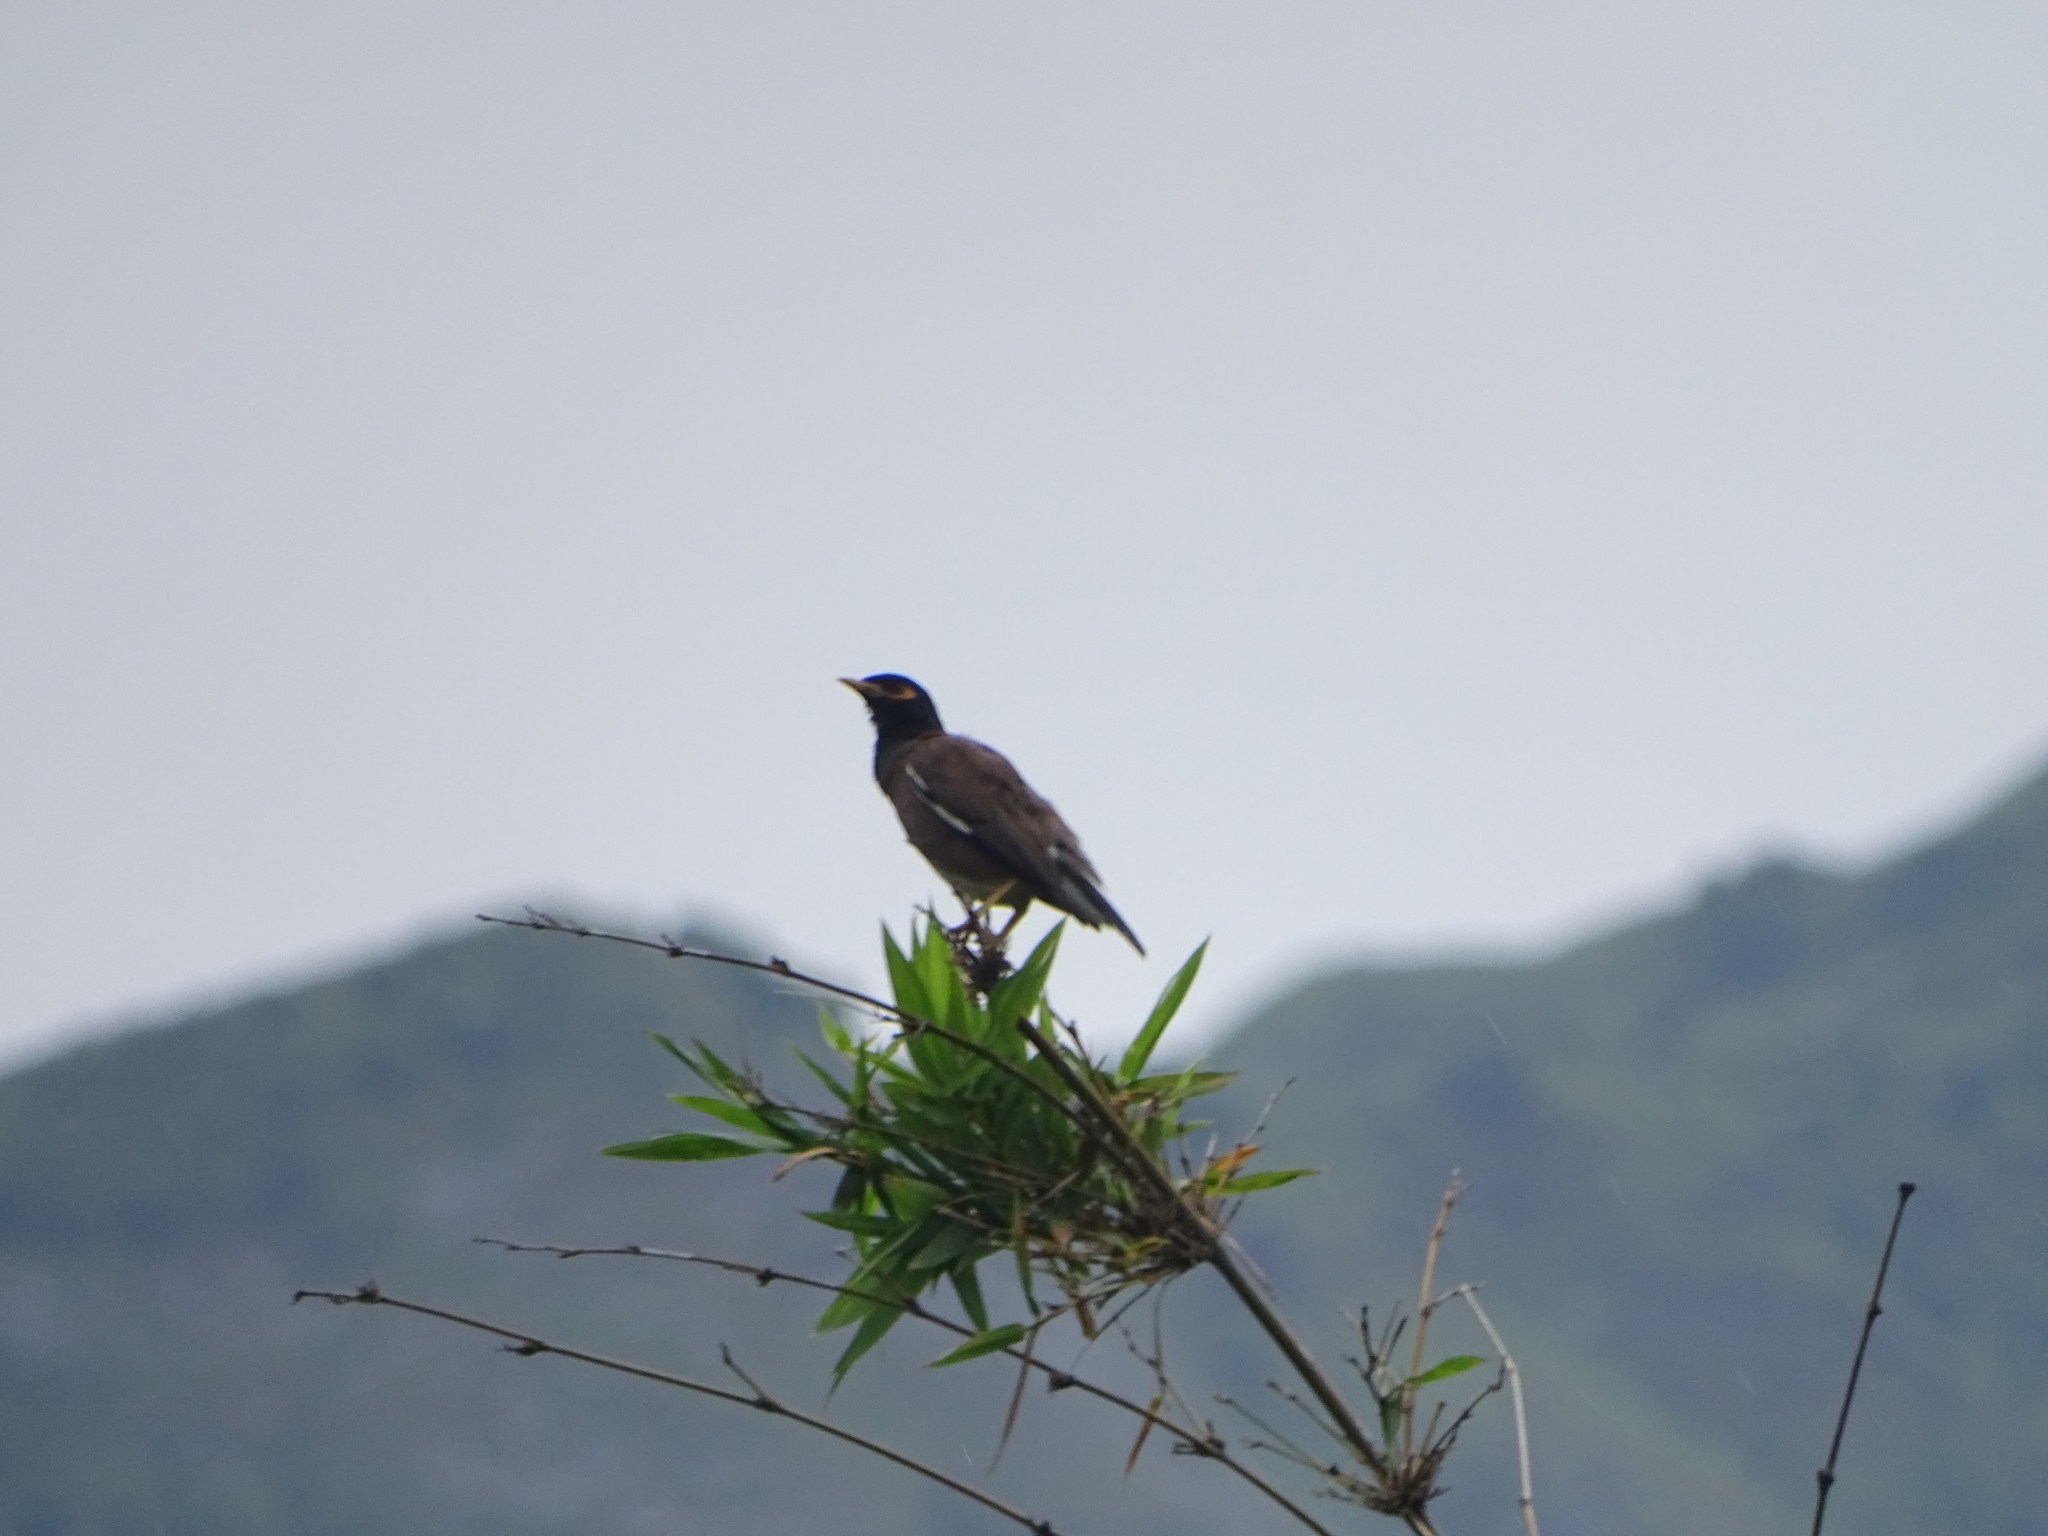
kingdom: Animalia
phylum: Chordata
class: Aves
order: Passeriformes
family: Sturnidae
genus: Acridotheres
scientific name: Acridotheres tristis
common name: Common myna
